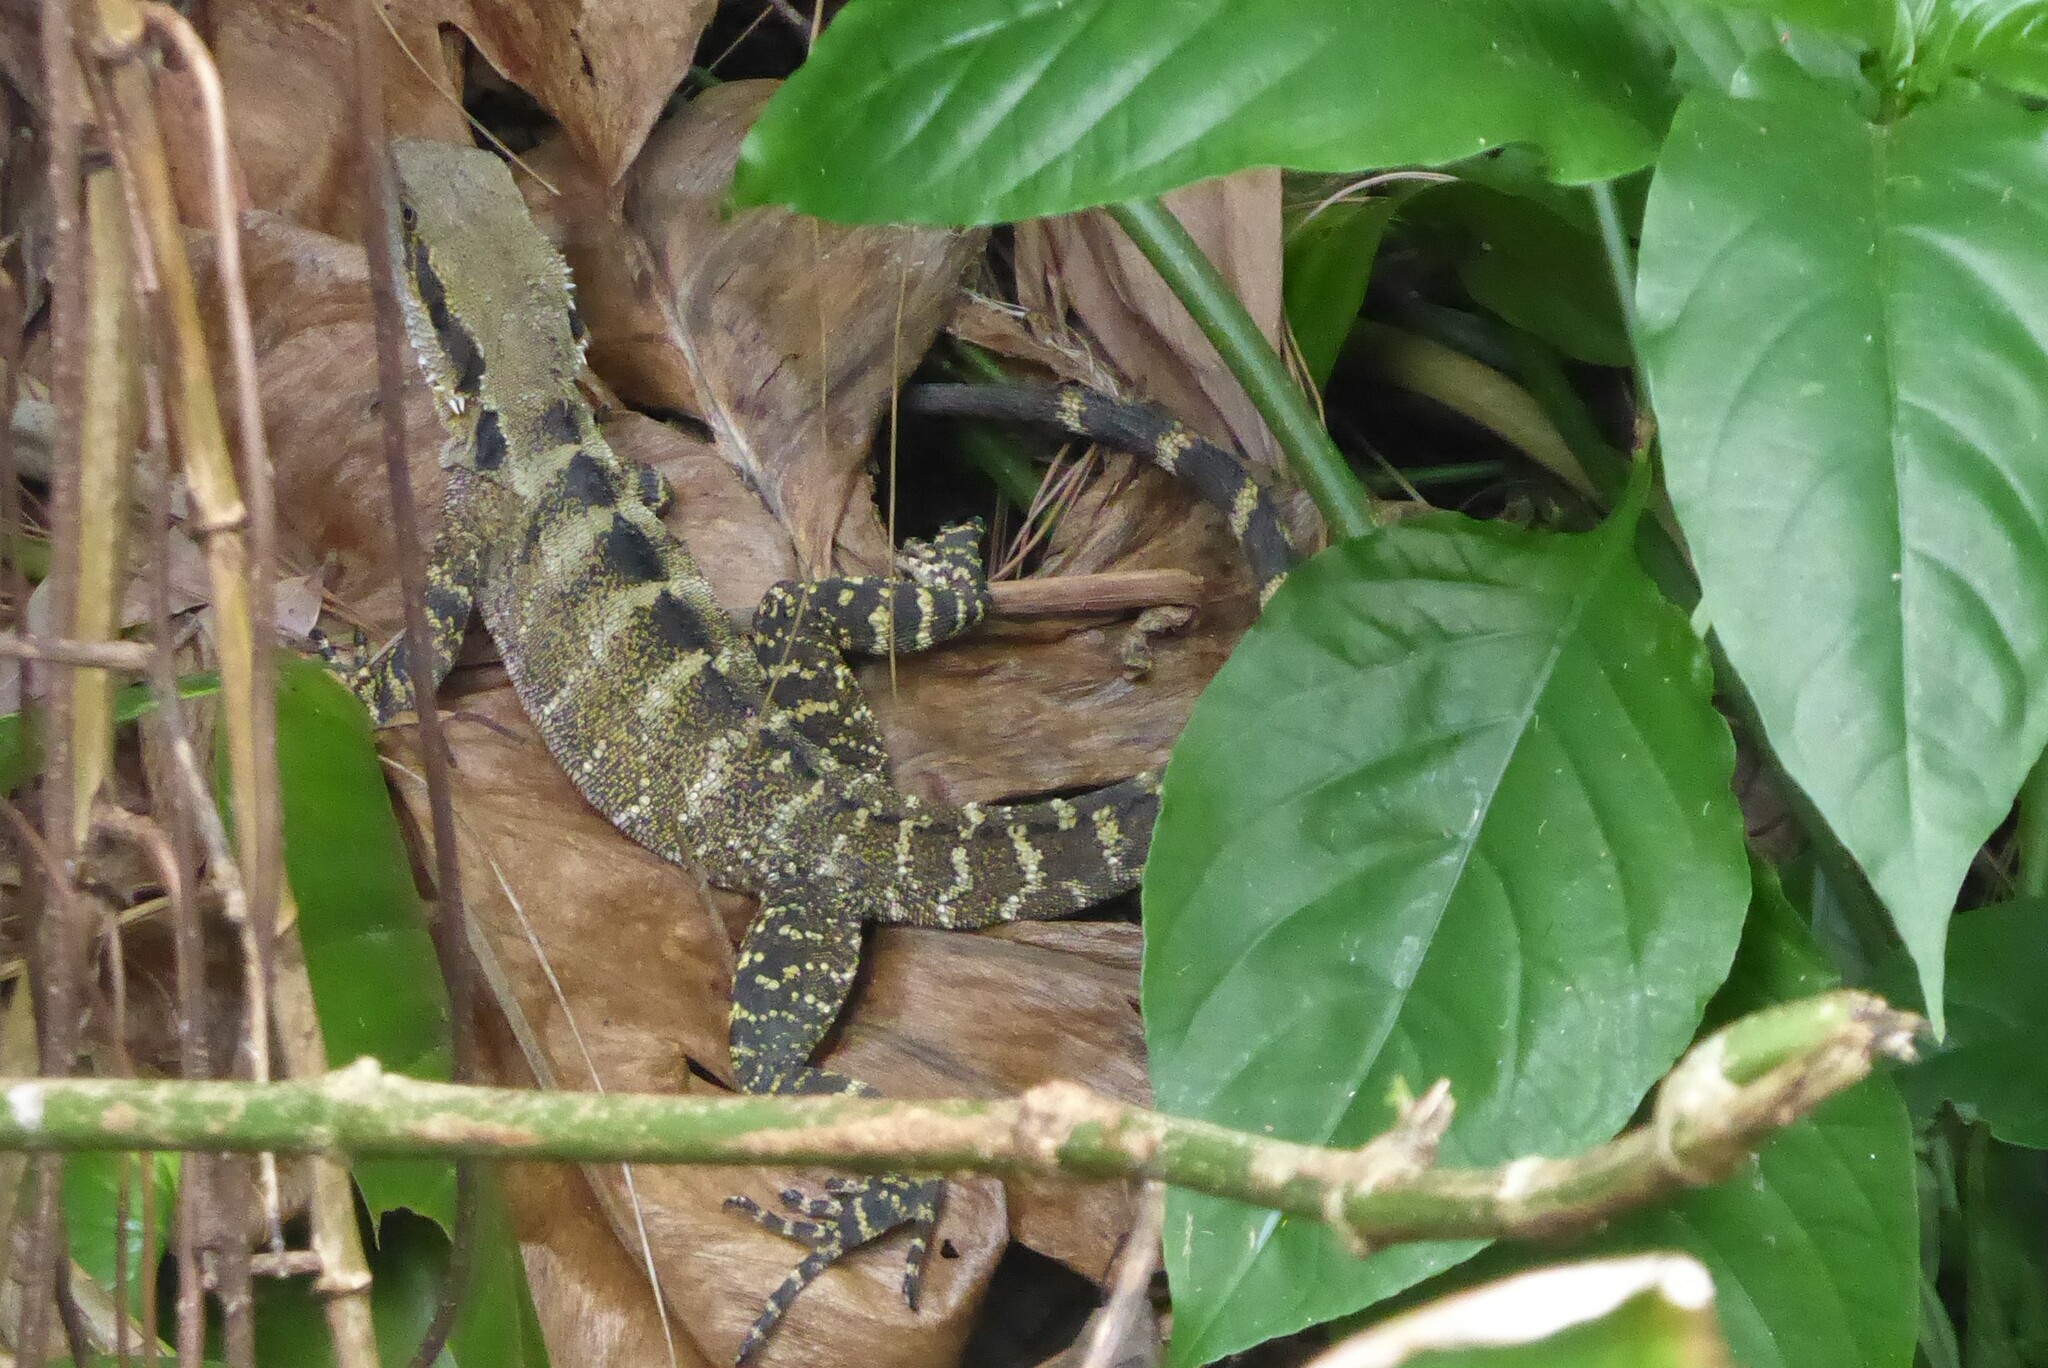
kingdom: Animalia
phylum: Chordata
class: Squamata
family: Agamidae
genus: Intellagama
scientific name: Intellagama lesueurii
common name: Eastern water dragon
